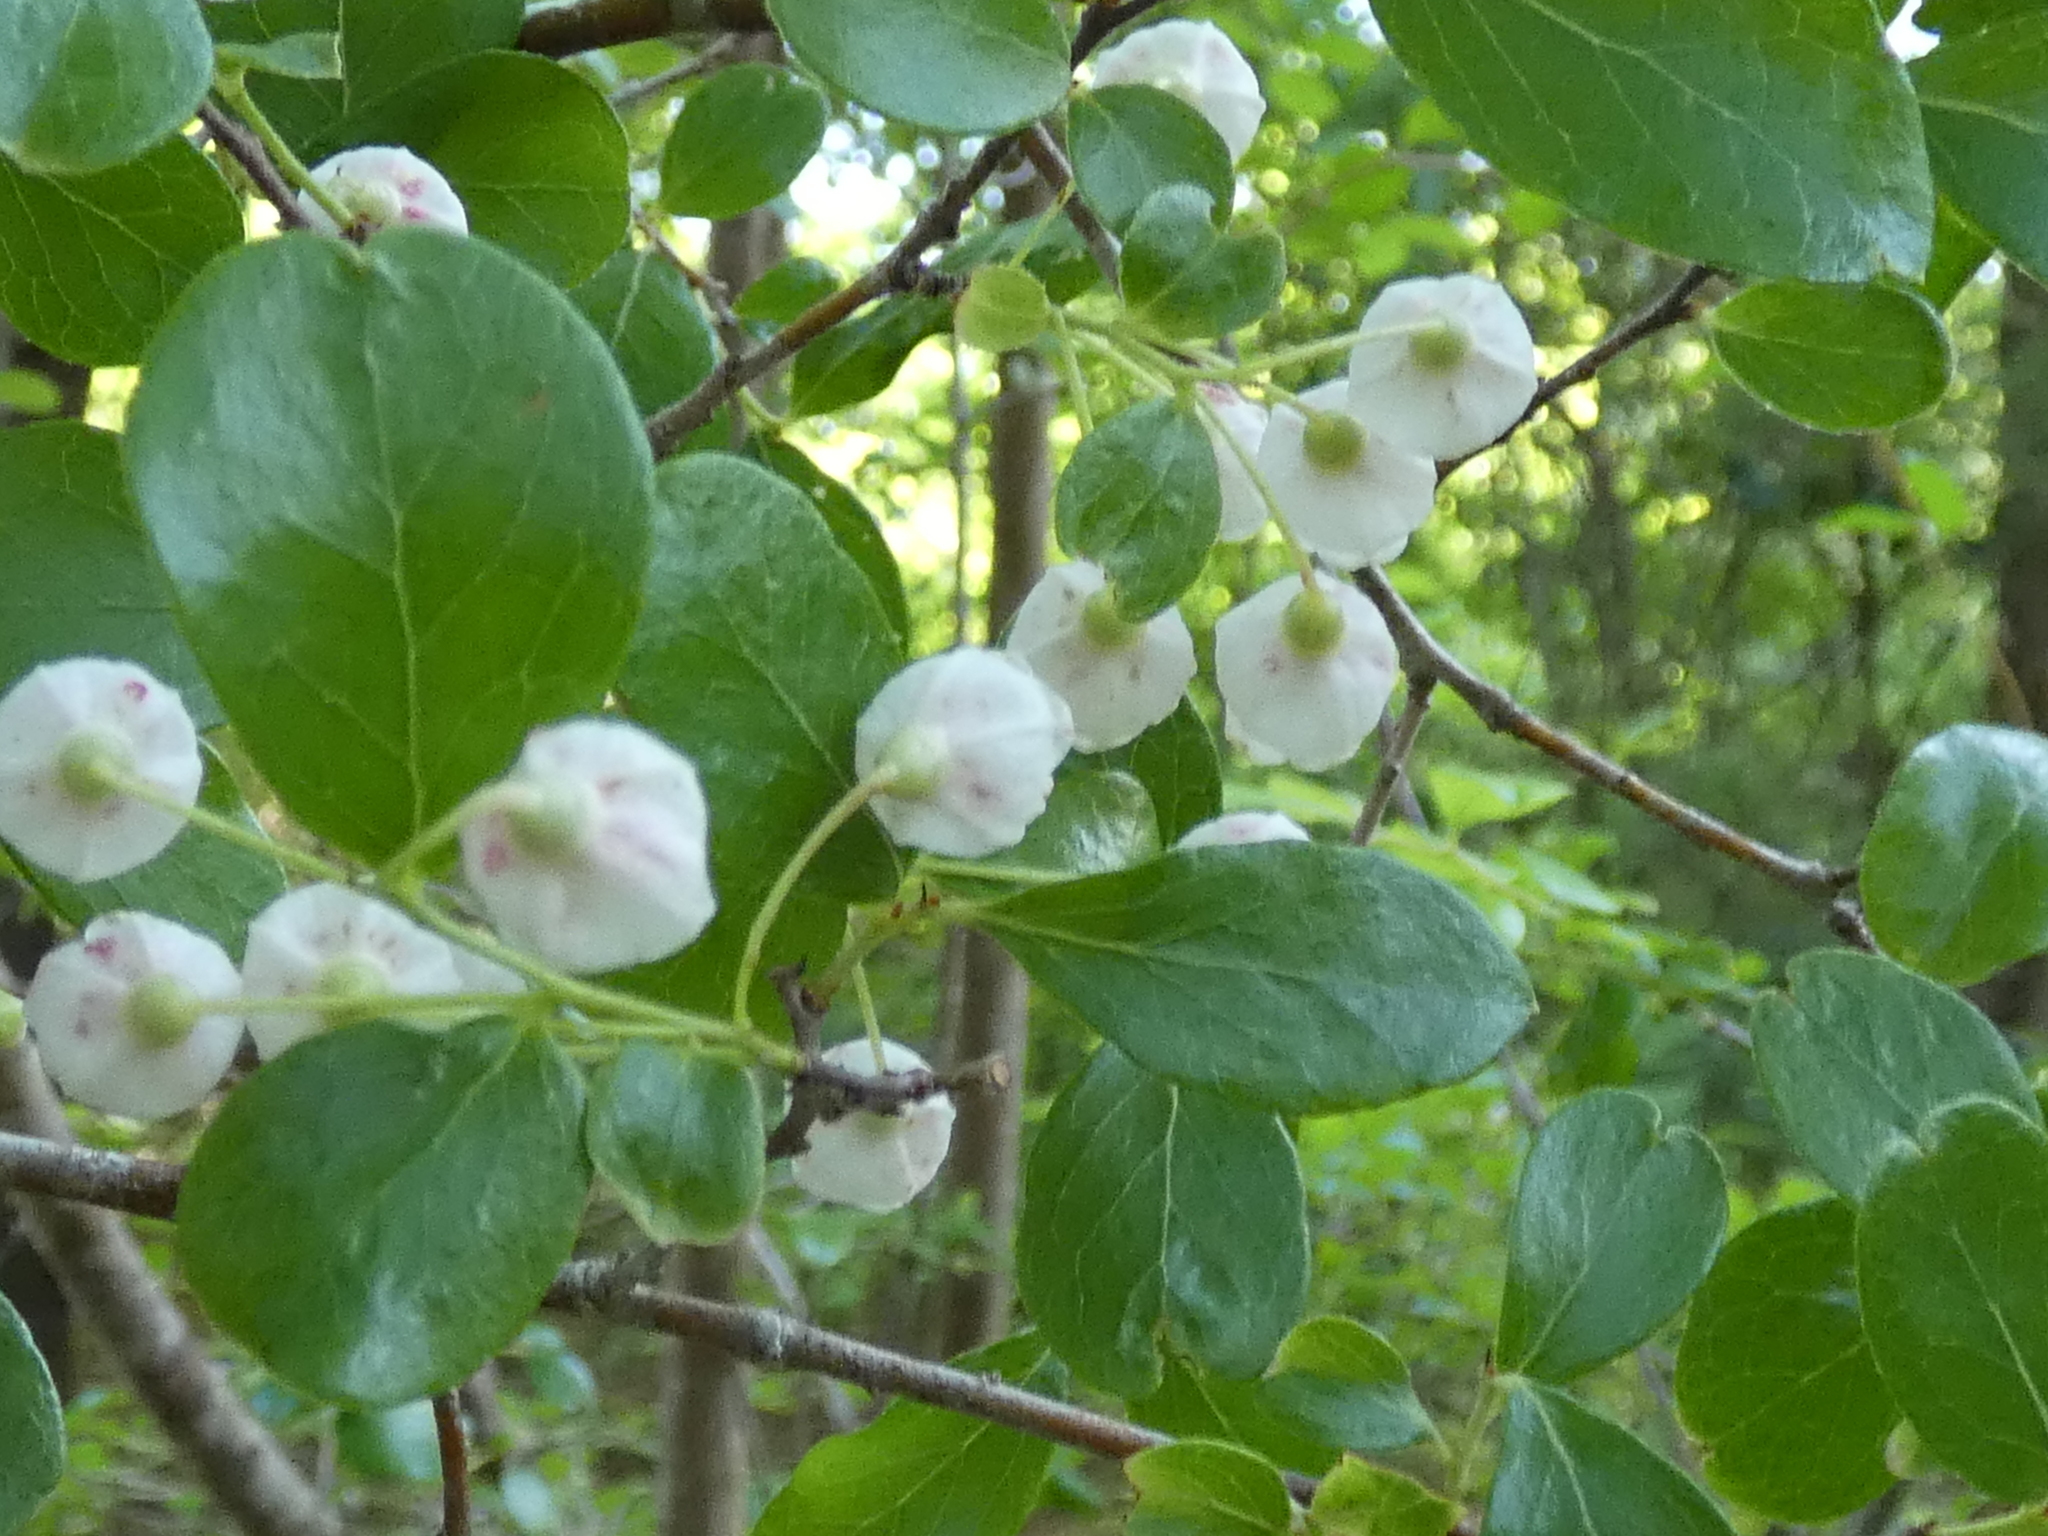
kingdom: Plantae
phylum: Tracheophyta
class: Magnoliopsida
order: Ericales
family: Ericaceae
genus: Vaccinium
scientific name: Vaccinium arboreum
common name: Farkleberry
